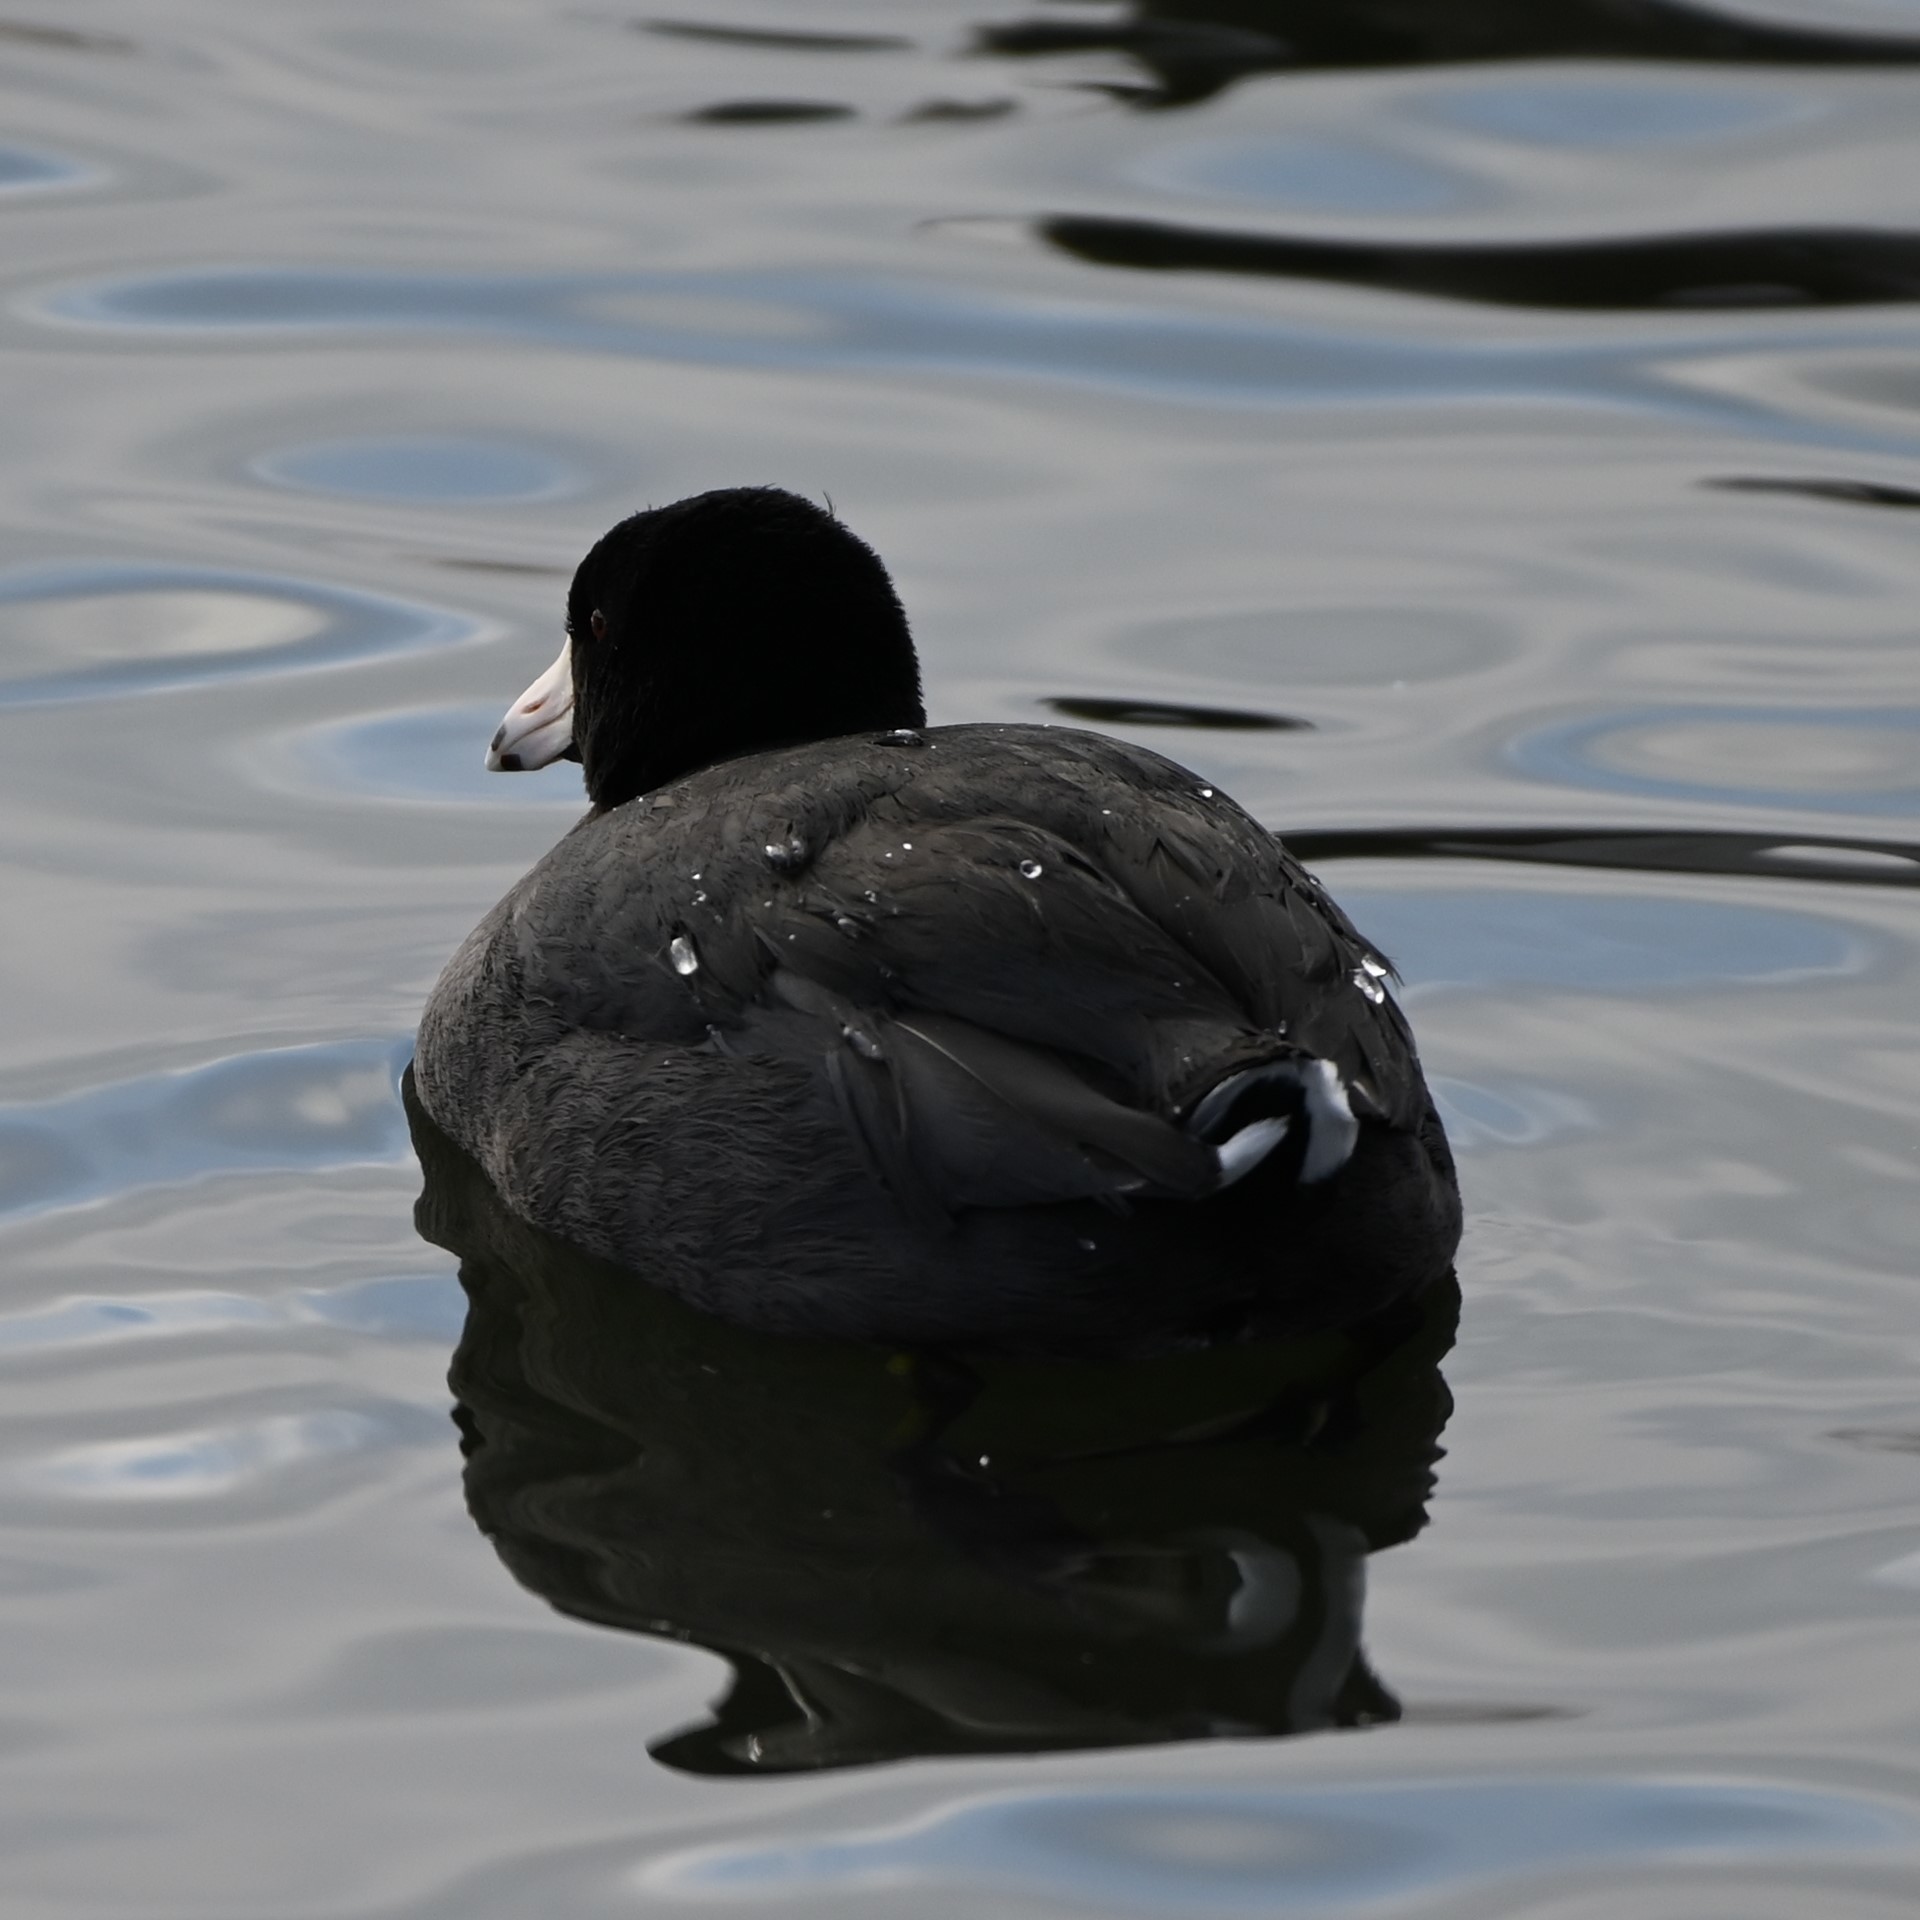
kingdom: Animalia
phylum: Chordata
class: Aves
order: Gruiformes
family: Rallidae
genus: Fulica
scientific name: Fulica americana
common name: American coot
